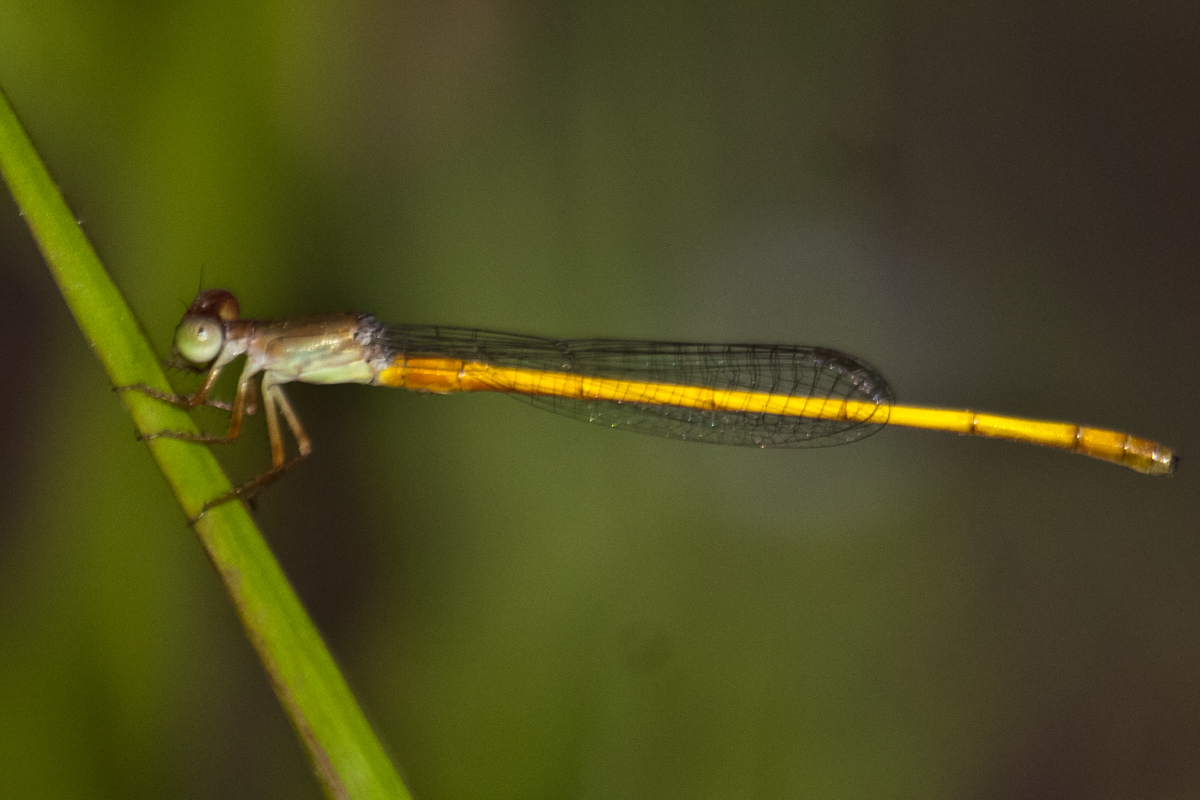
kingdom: Animalia
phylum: Arthropoda
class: Insecta
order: Odonata
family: Coenagrionidae
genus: Ceriagrion
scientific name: Ceriagrion calamineum
